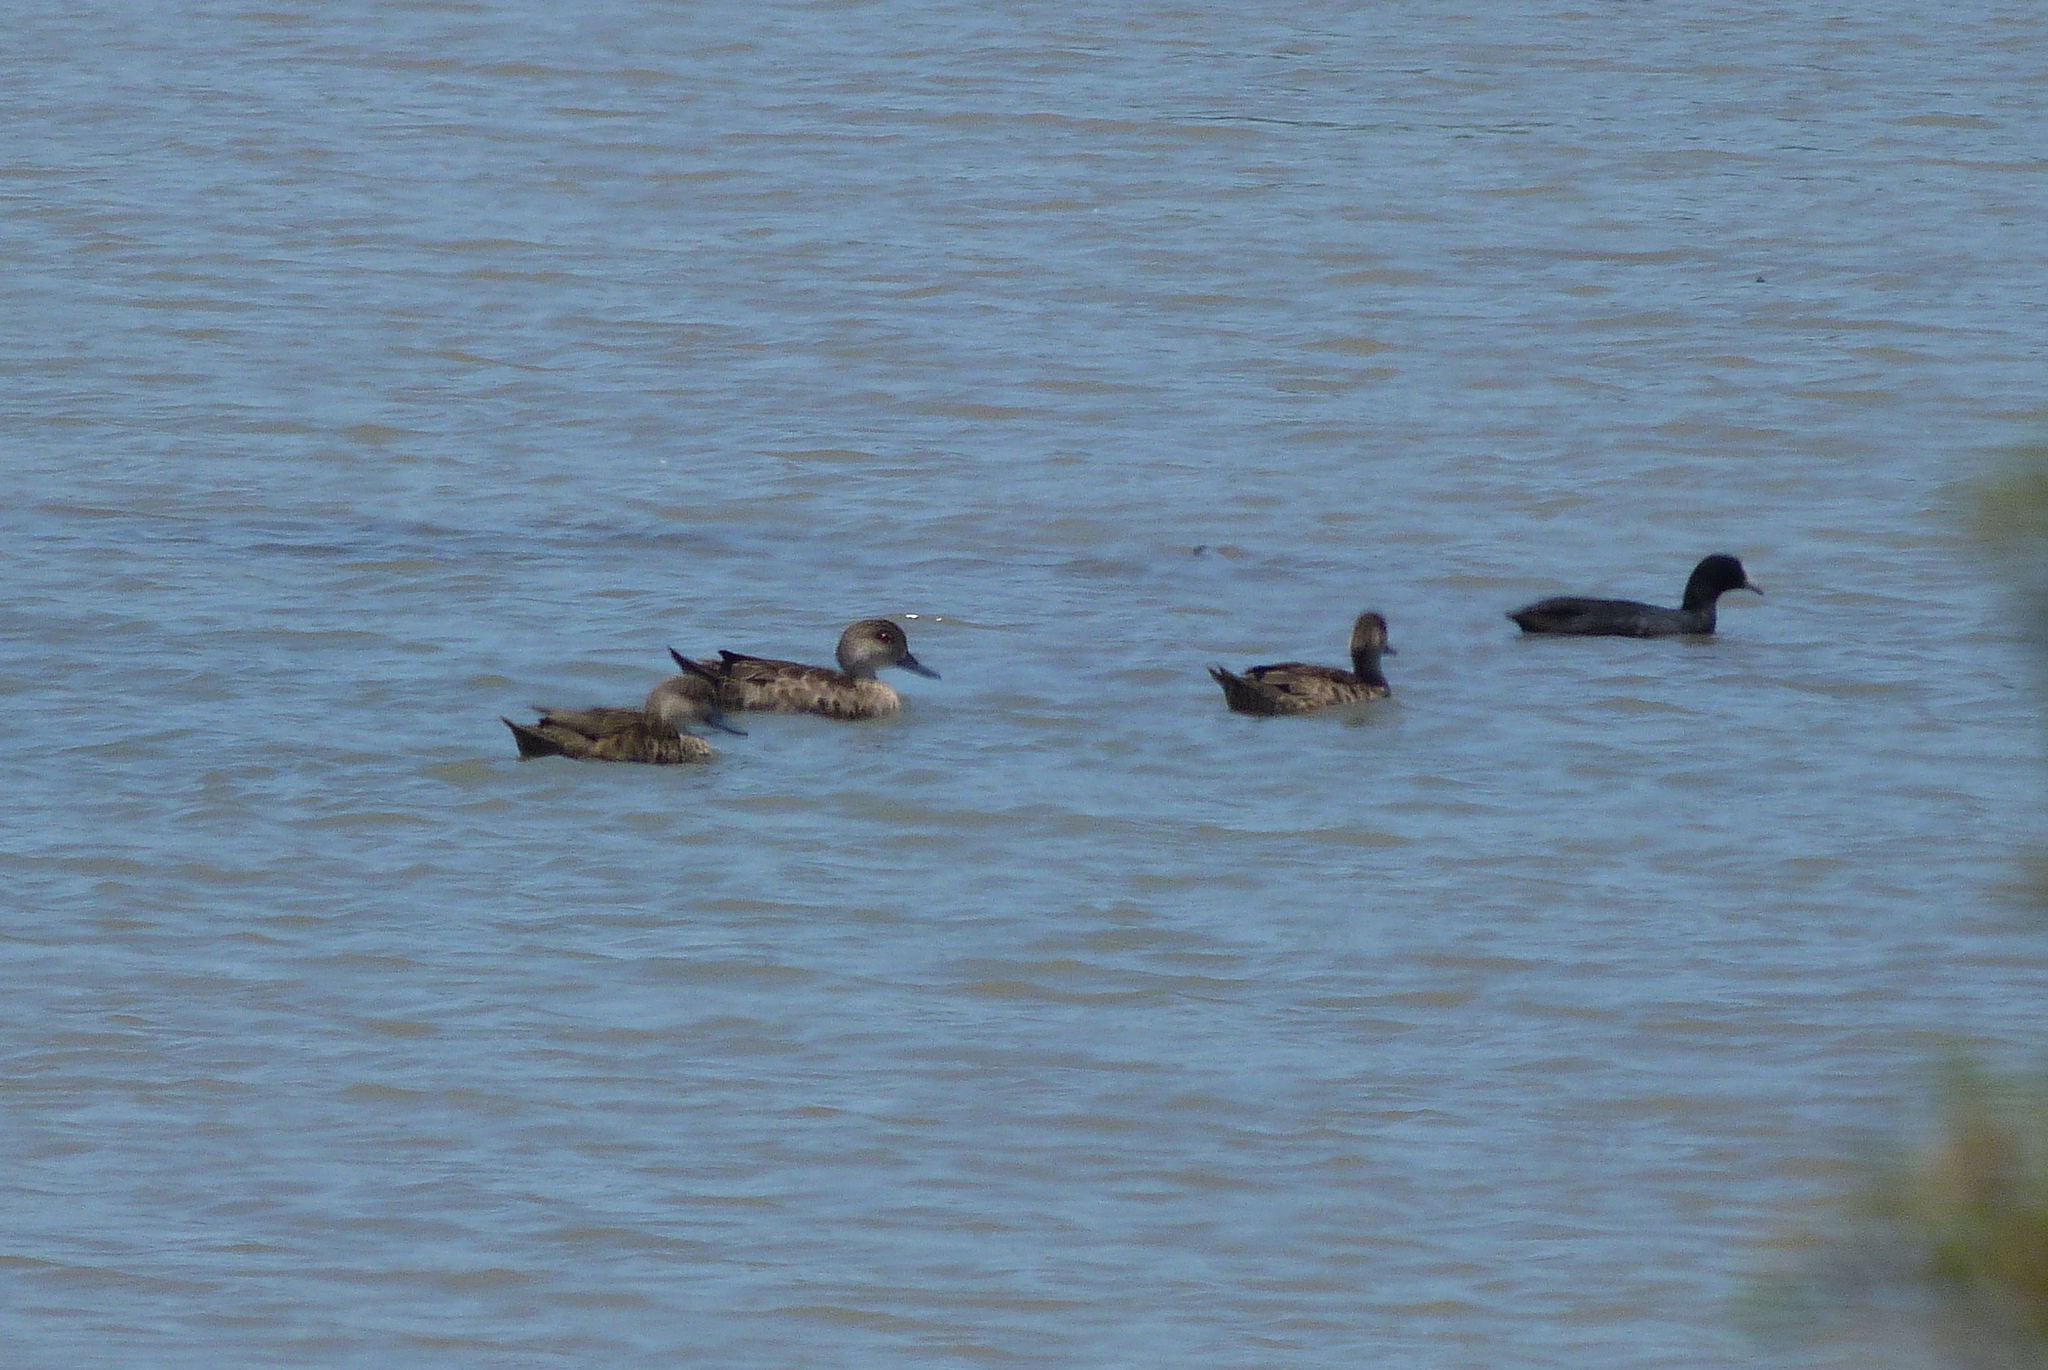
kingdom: Animalia
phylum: Chordata
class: Aves
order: Anseriformes
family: Anatidae
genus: Anas
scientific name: Anas gracilis
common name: Grey teal
